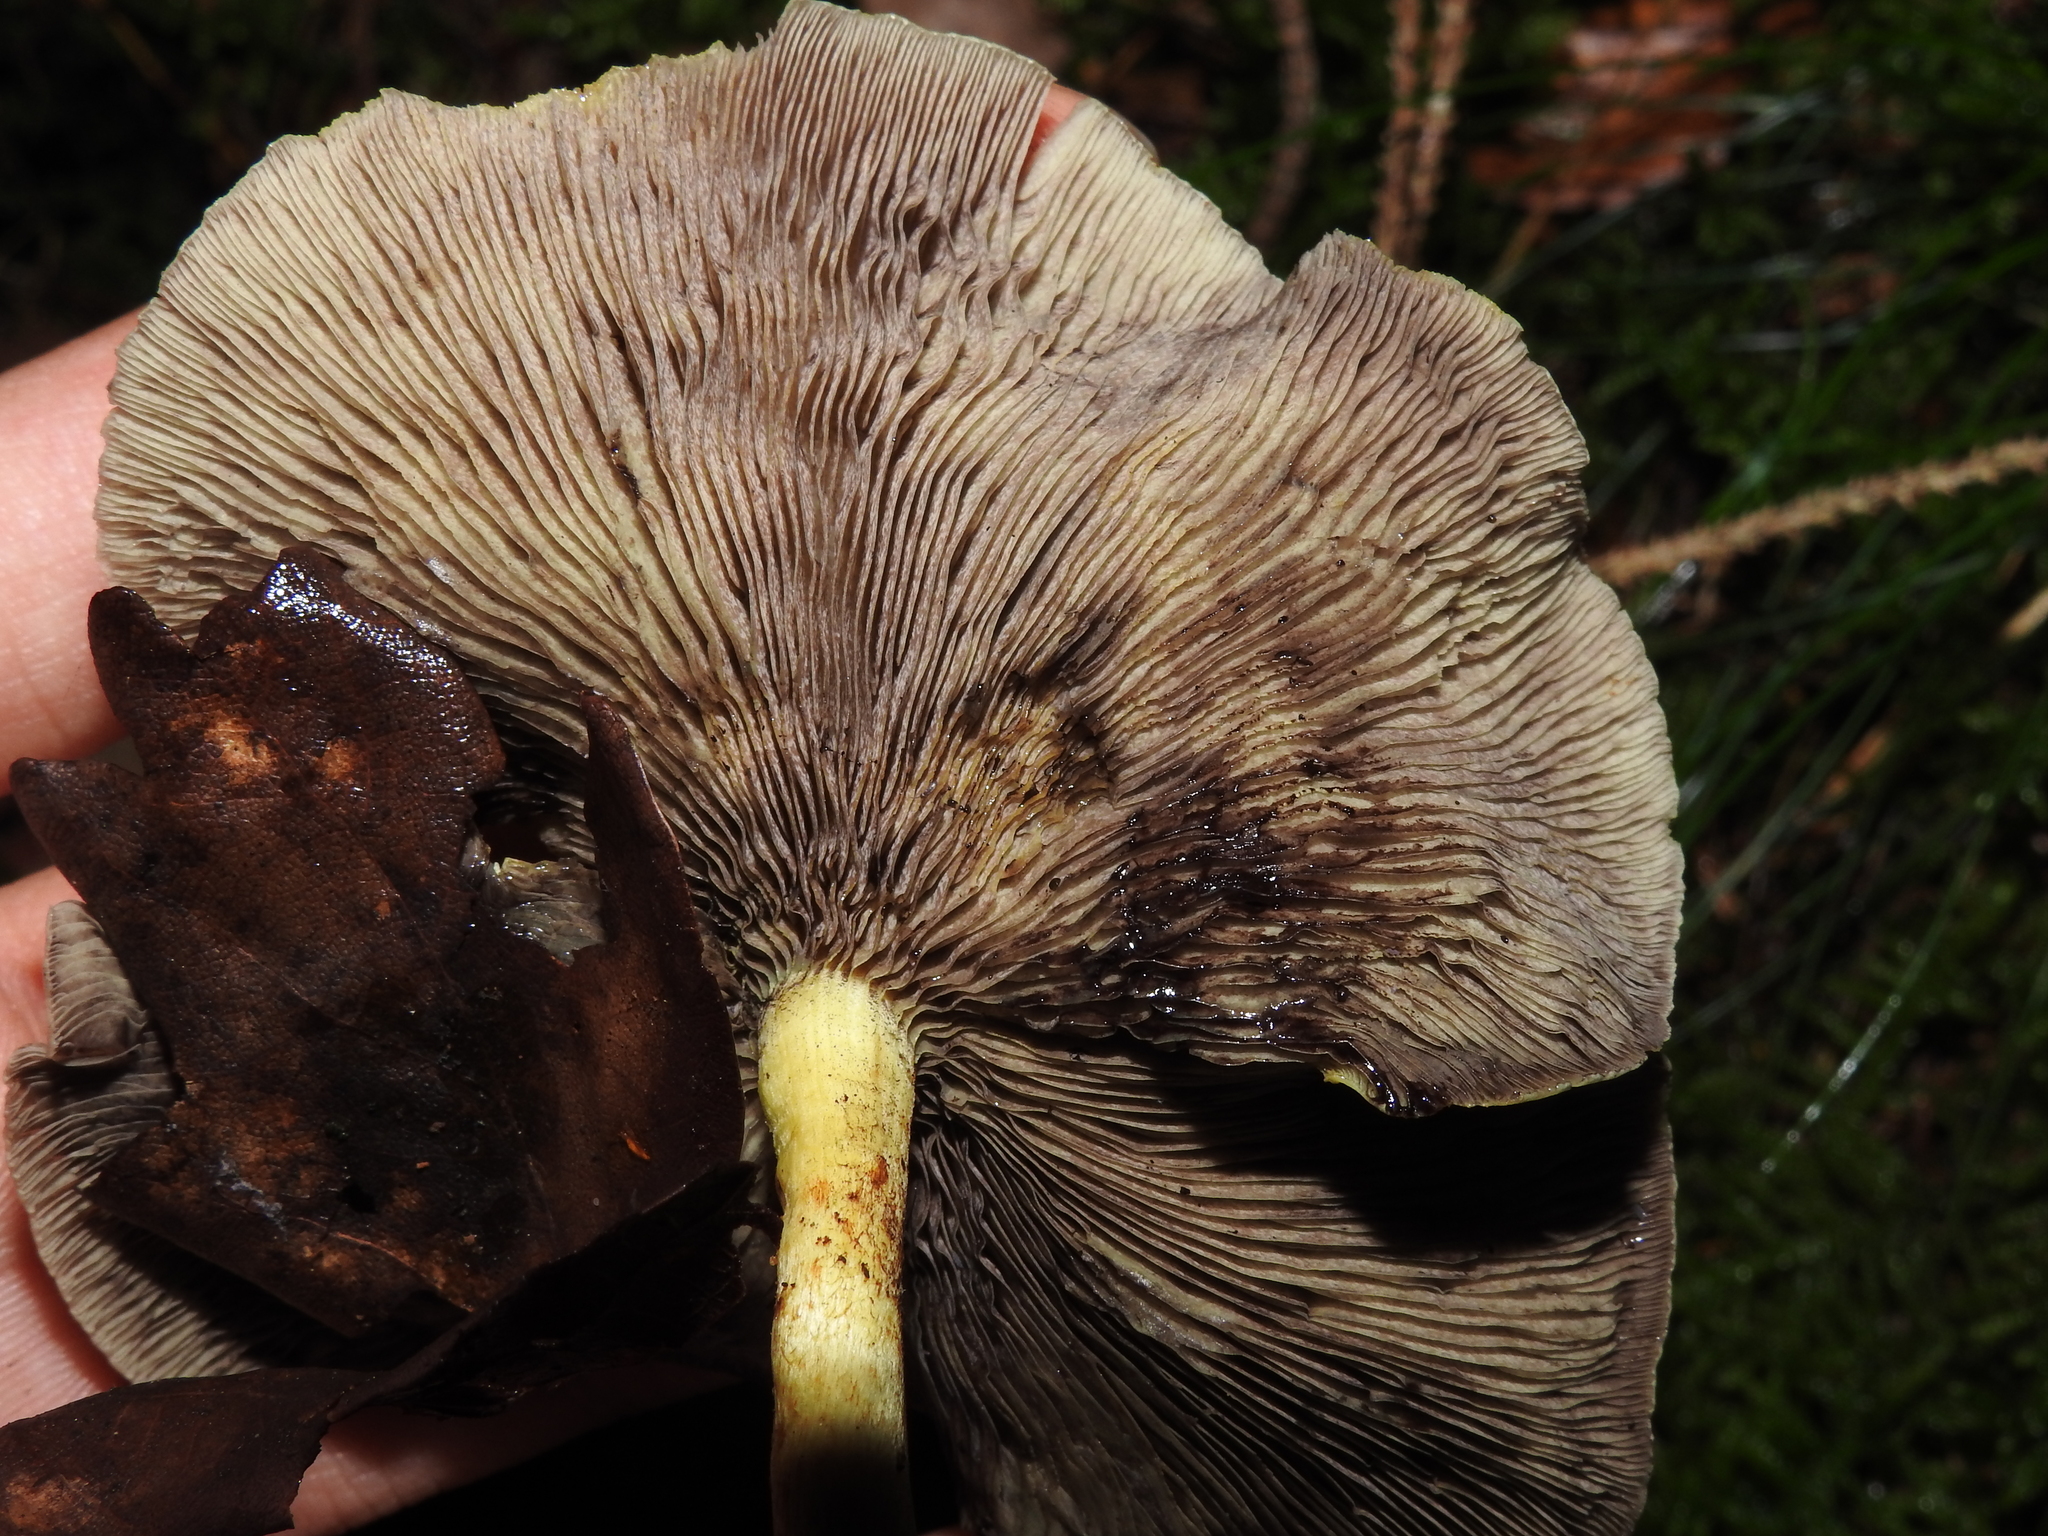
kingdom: Fungi
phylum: Basidiomycota
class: Agaricomycetes
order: Agaricales
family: Strophariaceae
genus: Hypholoma
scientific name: Hypholoma fasciculare
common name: Sulphur tuft
